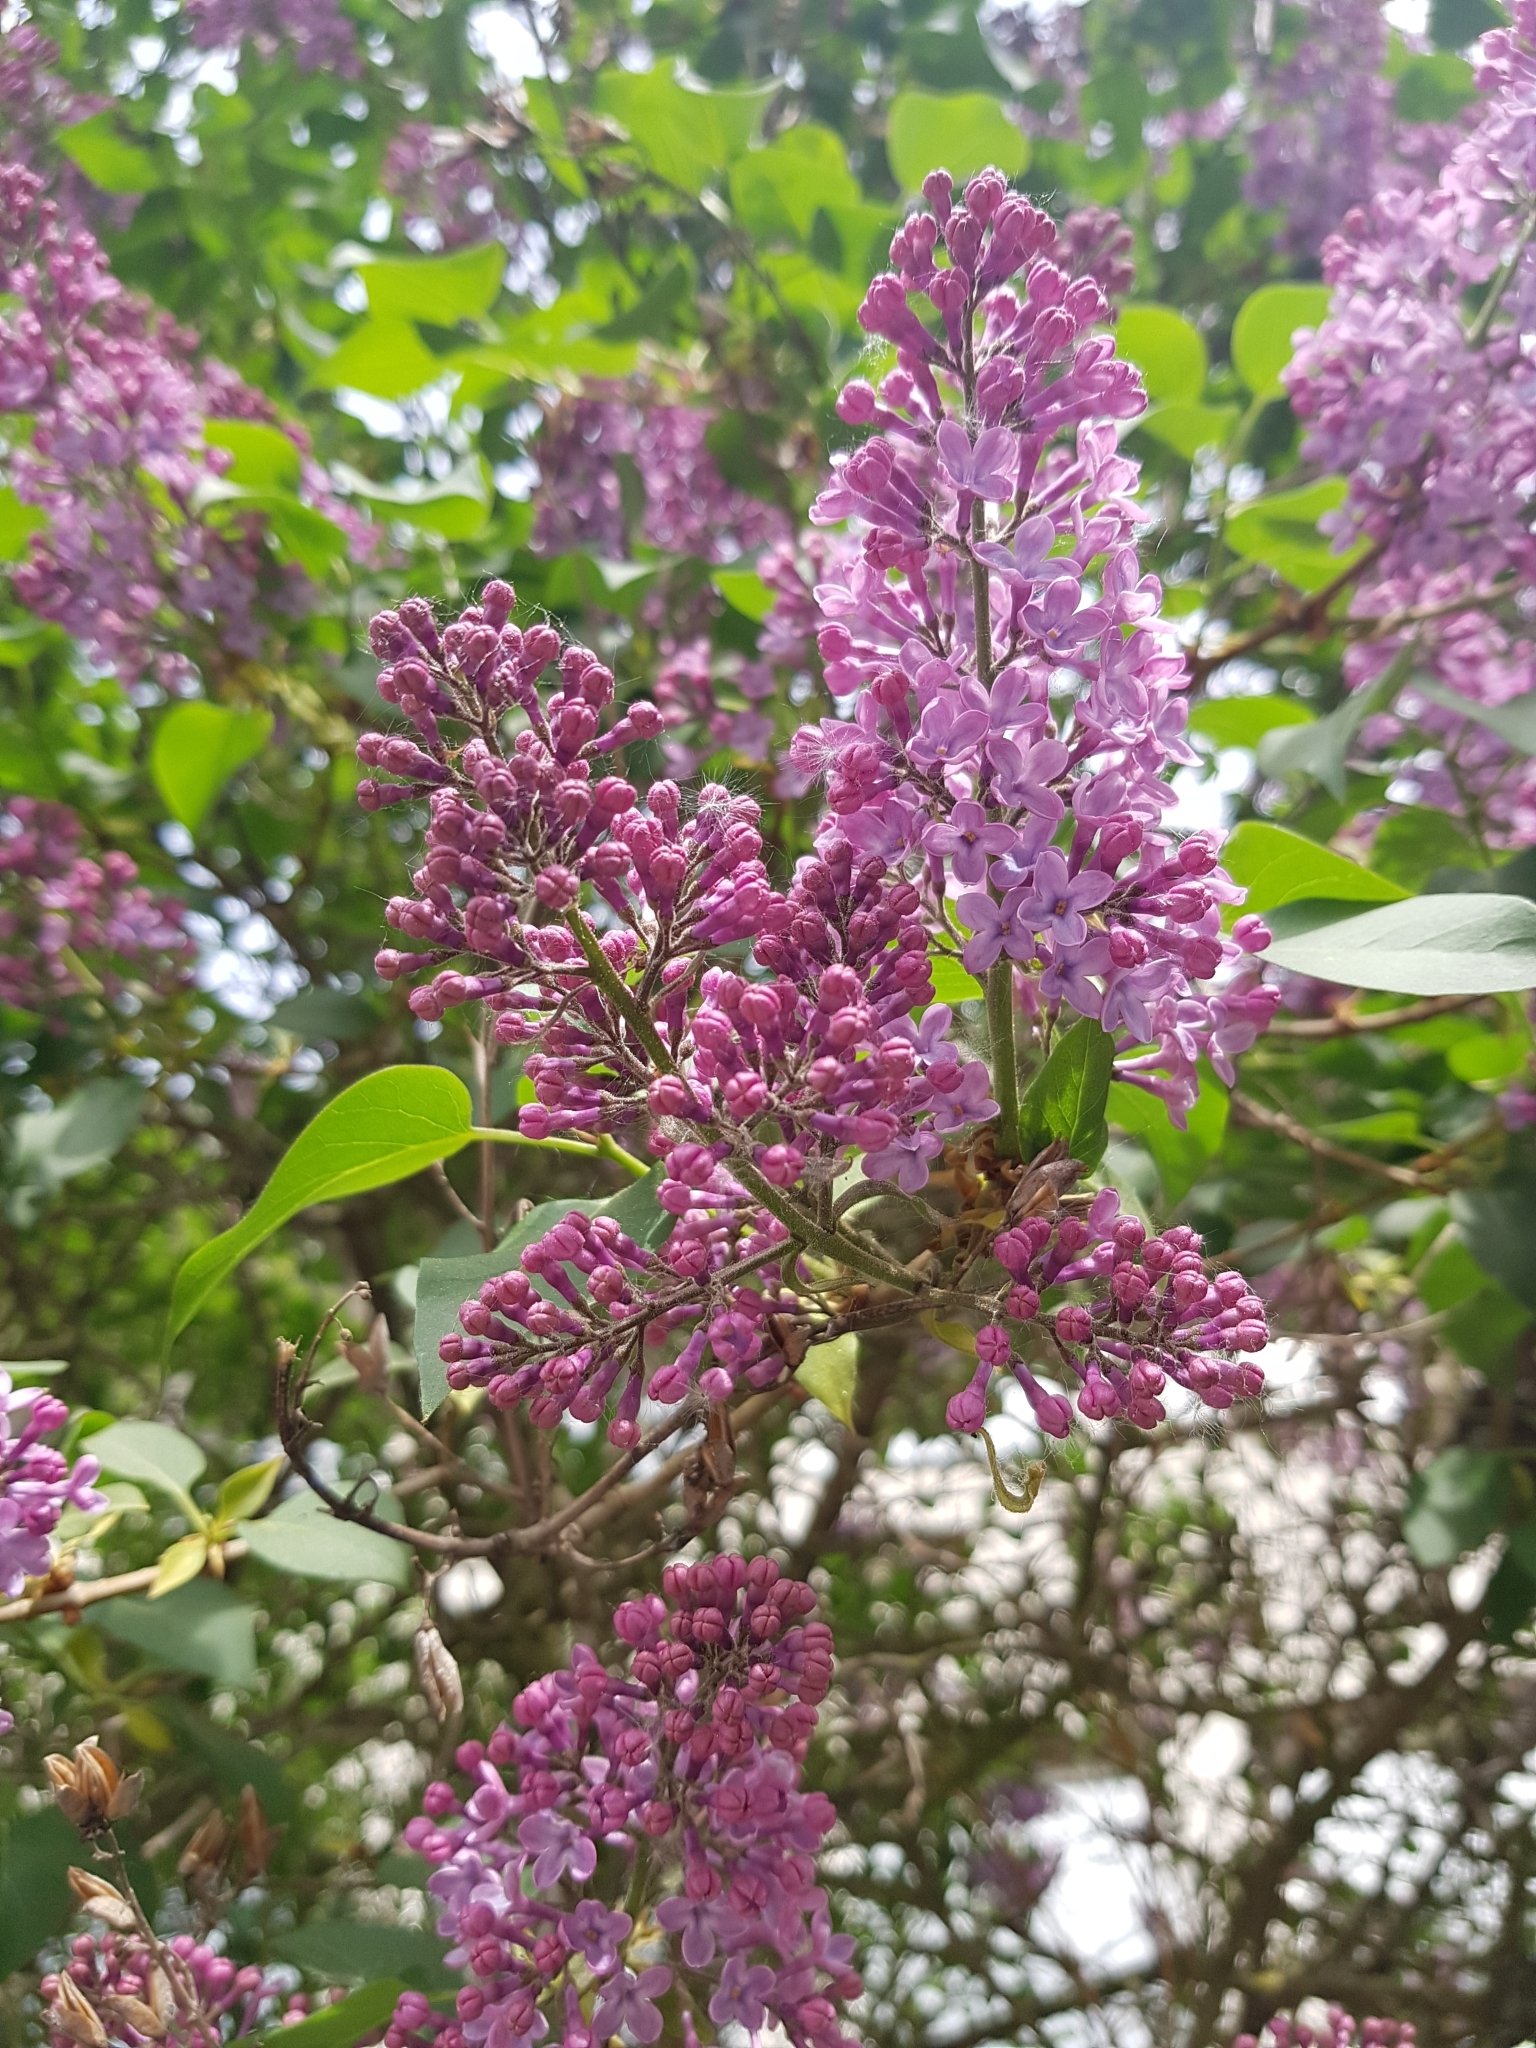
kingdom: Plantae
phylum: Tracheophyta
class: Magnoliopsida
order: Lamiales
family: Oleaceae
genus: Syringa
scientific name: Syringa vulgaris
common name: Common lilac
